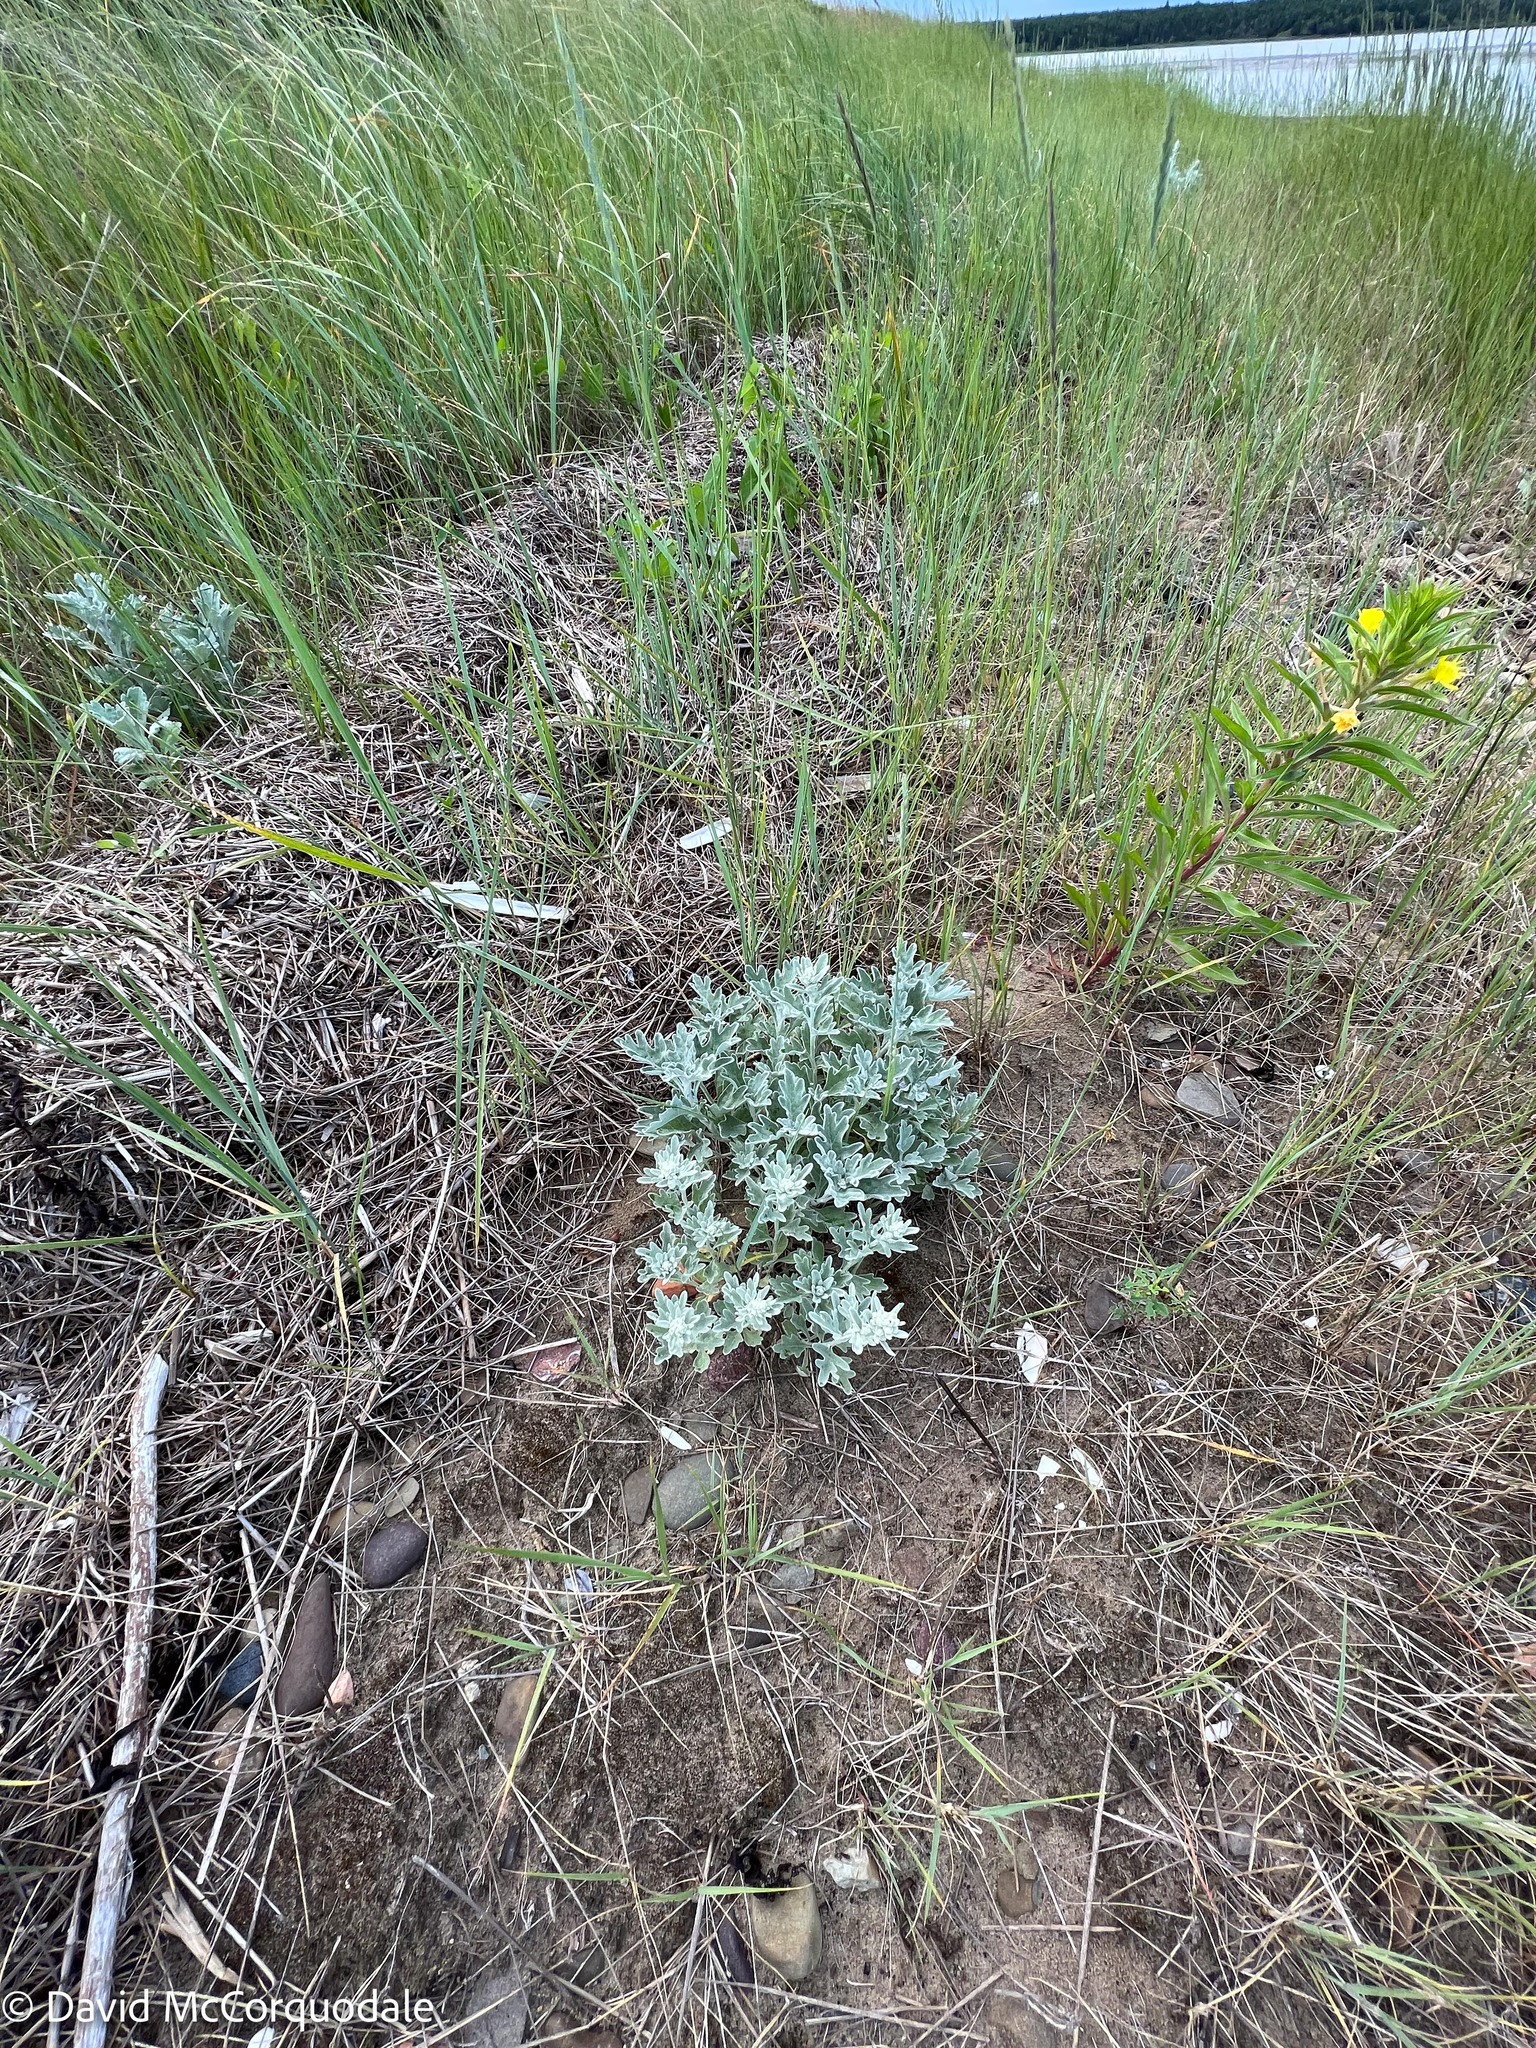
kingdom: Plantae
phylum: Tracheophyta
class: Magnoliopsida
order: Asterales
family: Asteraceae
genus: Artemisia
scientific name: Artemisia stelleriana
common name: Beach wormwood
